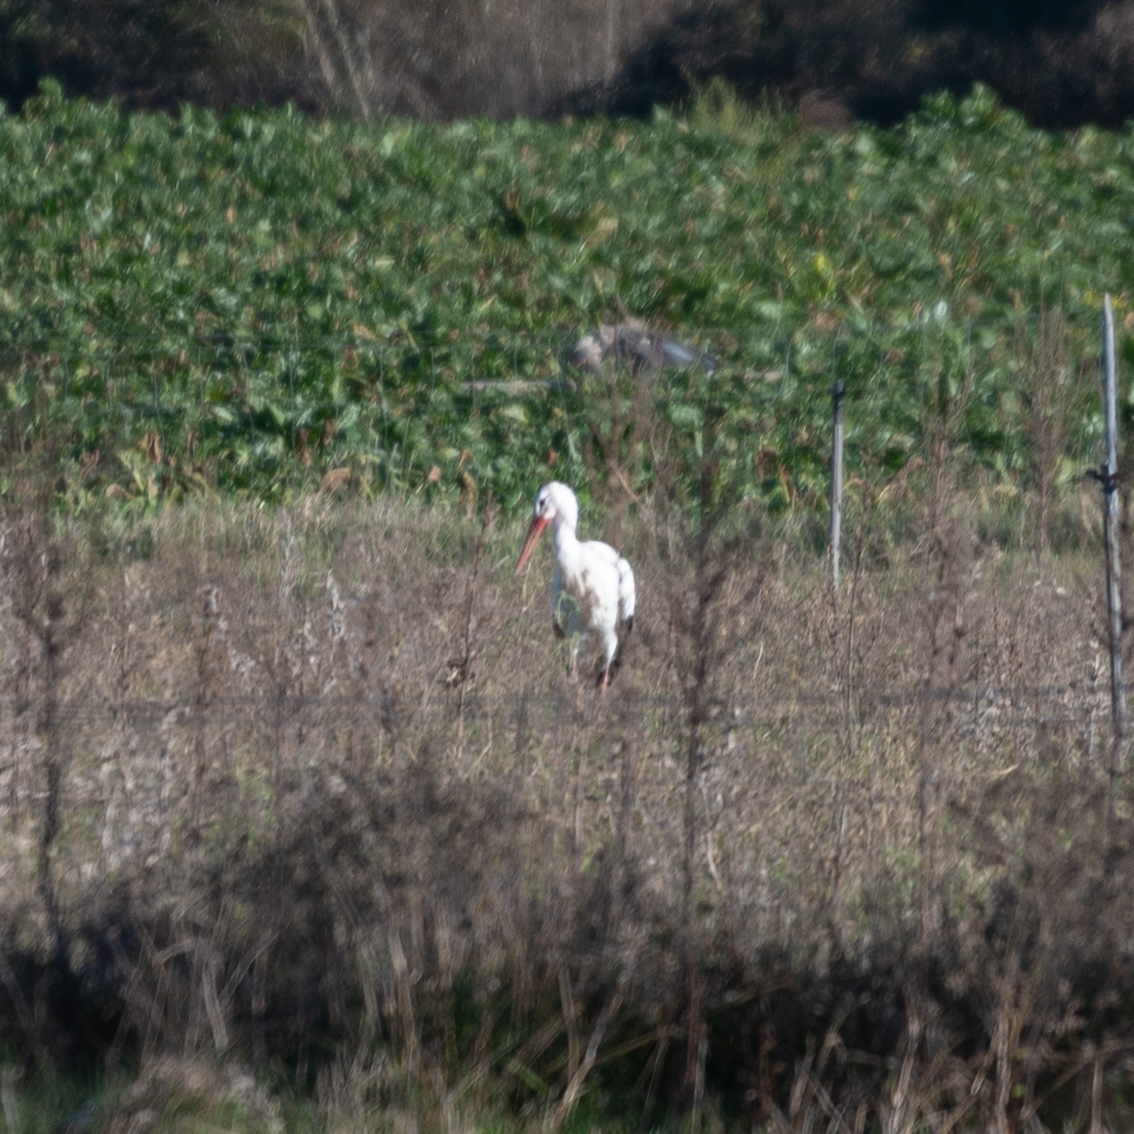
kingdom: Animalia
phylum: Chordata
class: Aves
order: Ciconiiformes
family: Ciconiidae
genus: Ciconia
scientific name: Ciconia ciconia
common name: White stork
